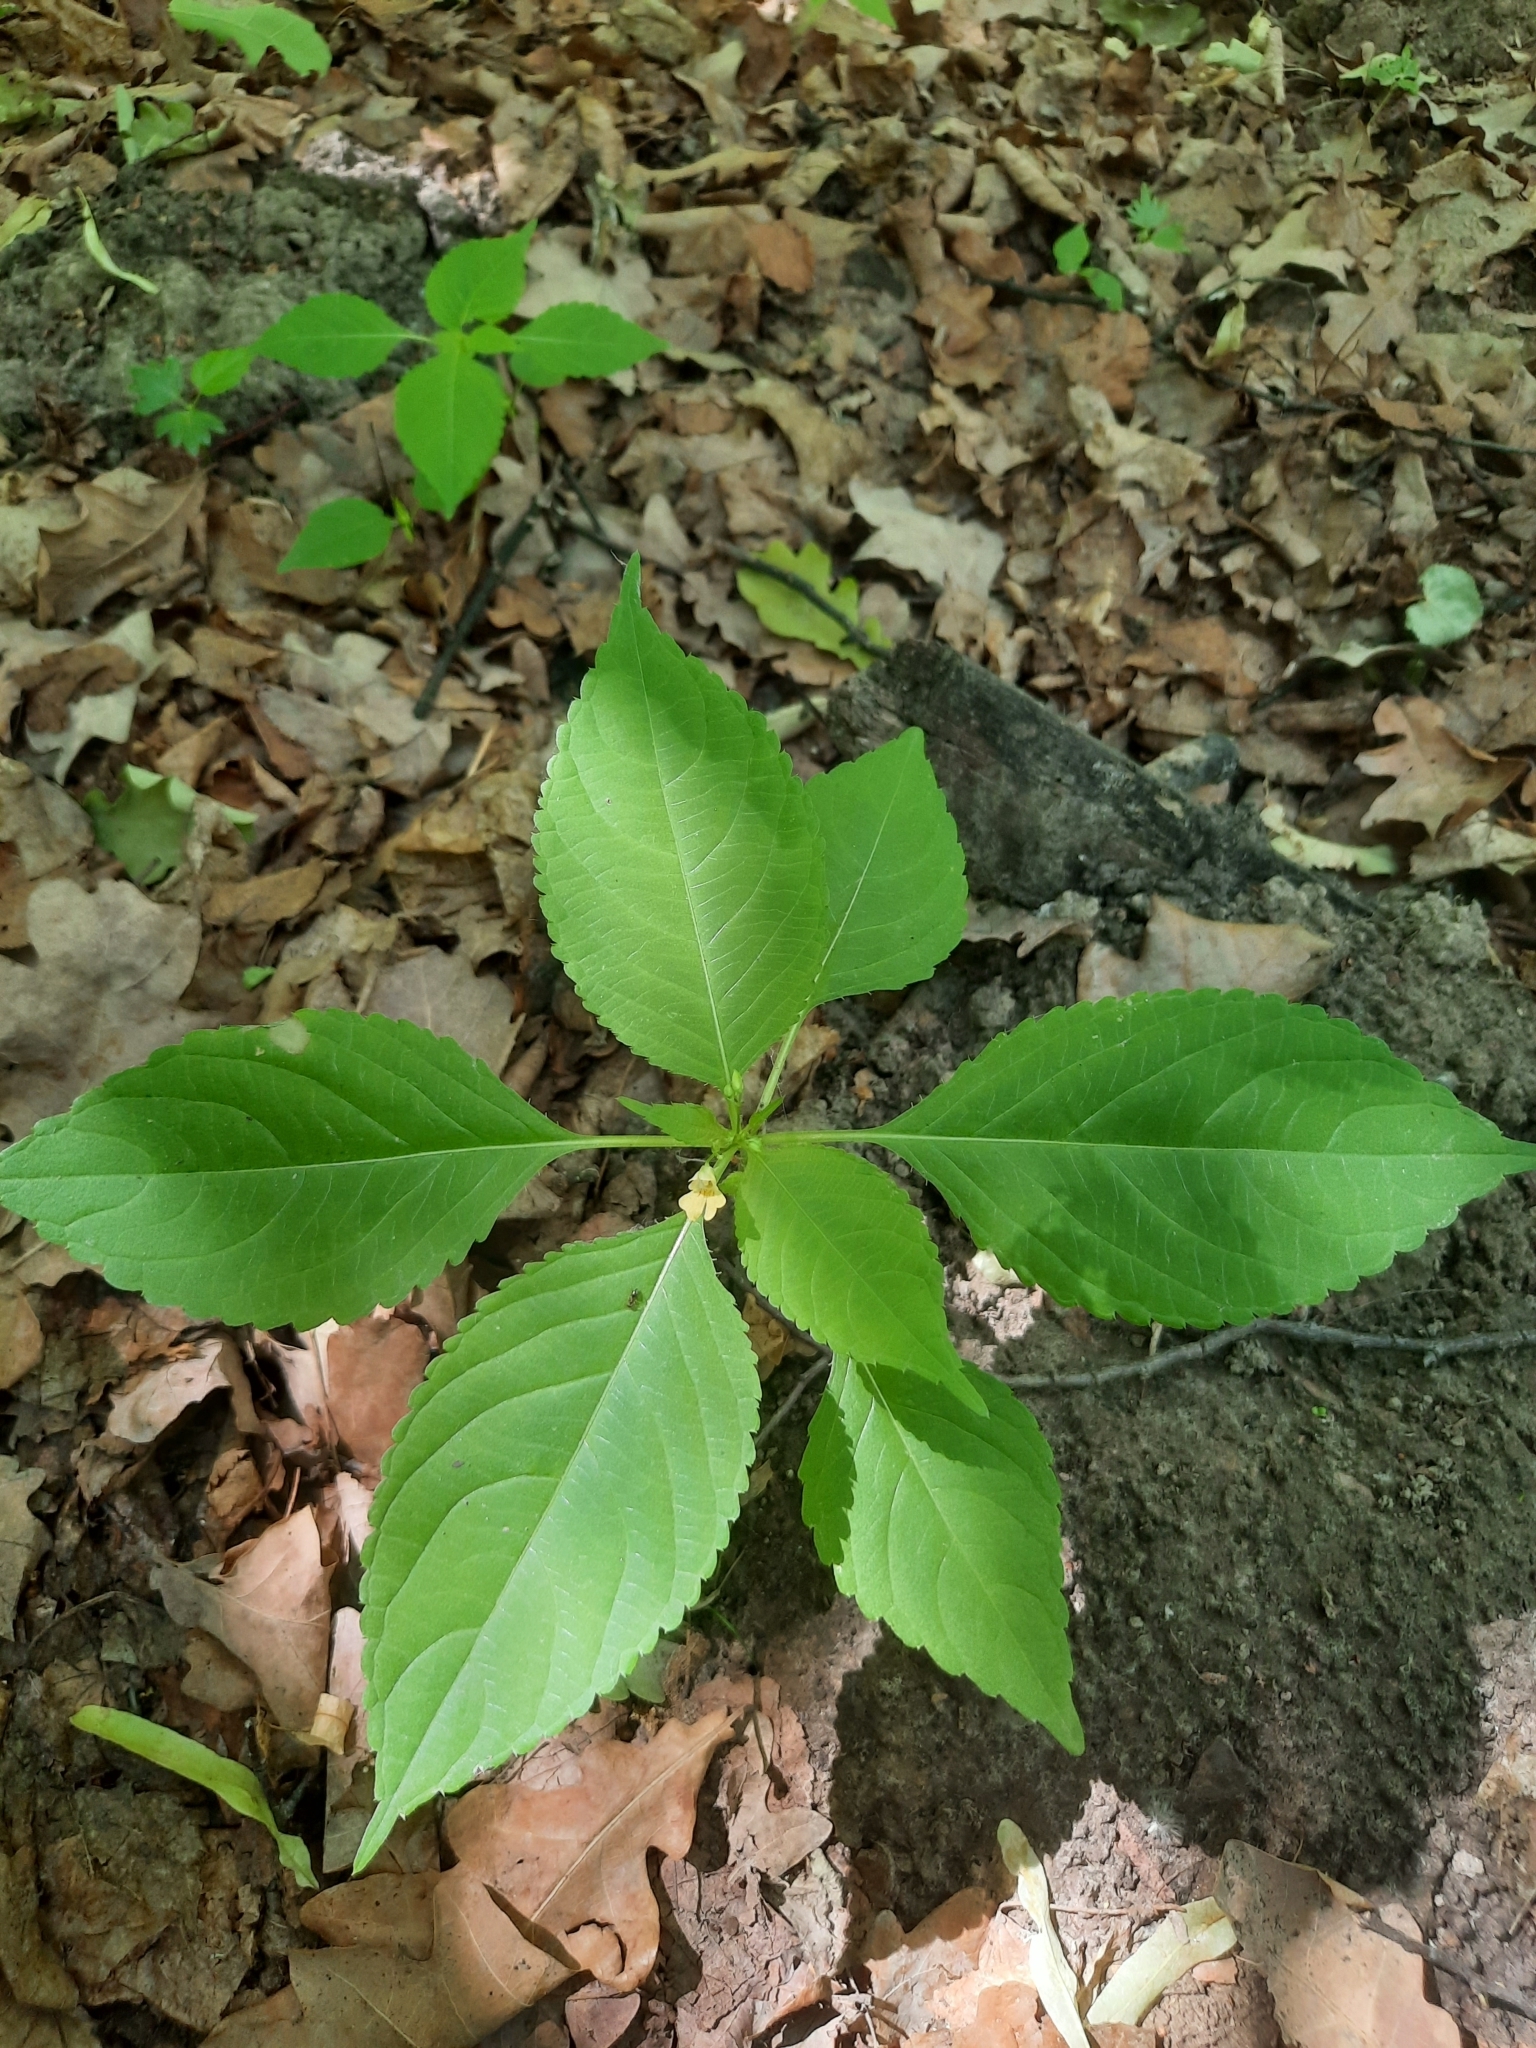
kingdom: Plantae
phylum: Tracheophyta
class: Magnoliopsida
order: Ericales
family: Balsaminaceae
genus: Impatiens
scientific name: Impatiens parviflora
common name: Small balsam
